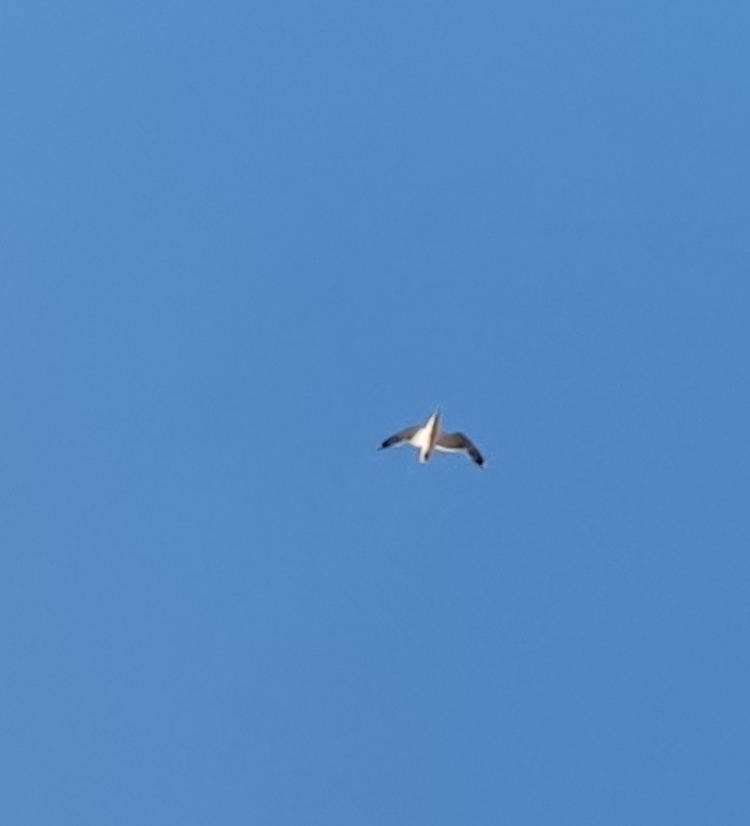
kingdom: Animalia
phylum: Chordata
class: Aves
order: Charadriiformes
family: Laridae
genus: Larus
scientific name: Larus cachinnans
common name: Caspian gull
